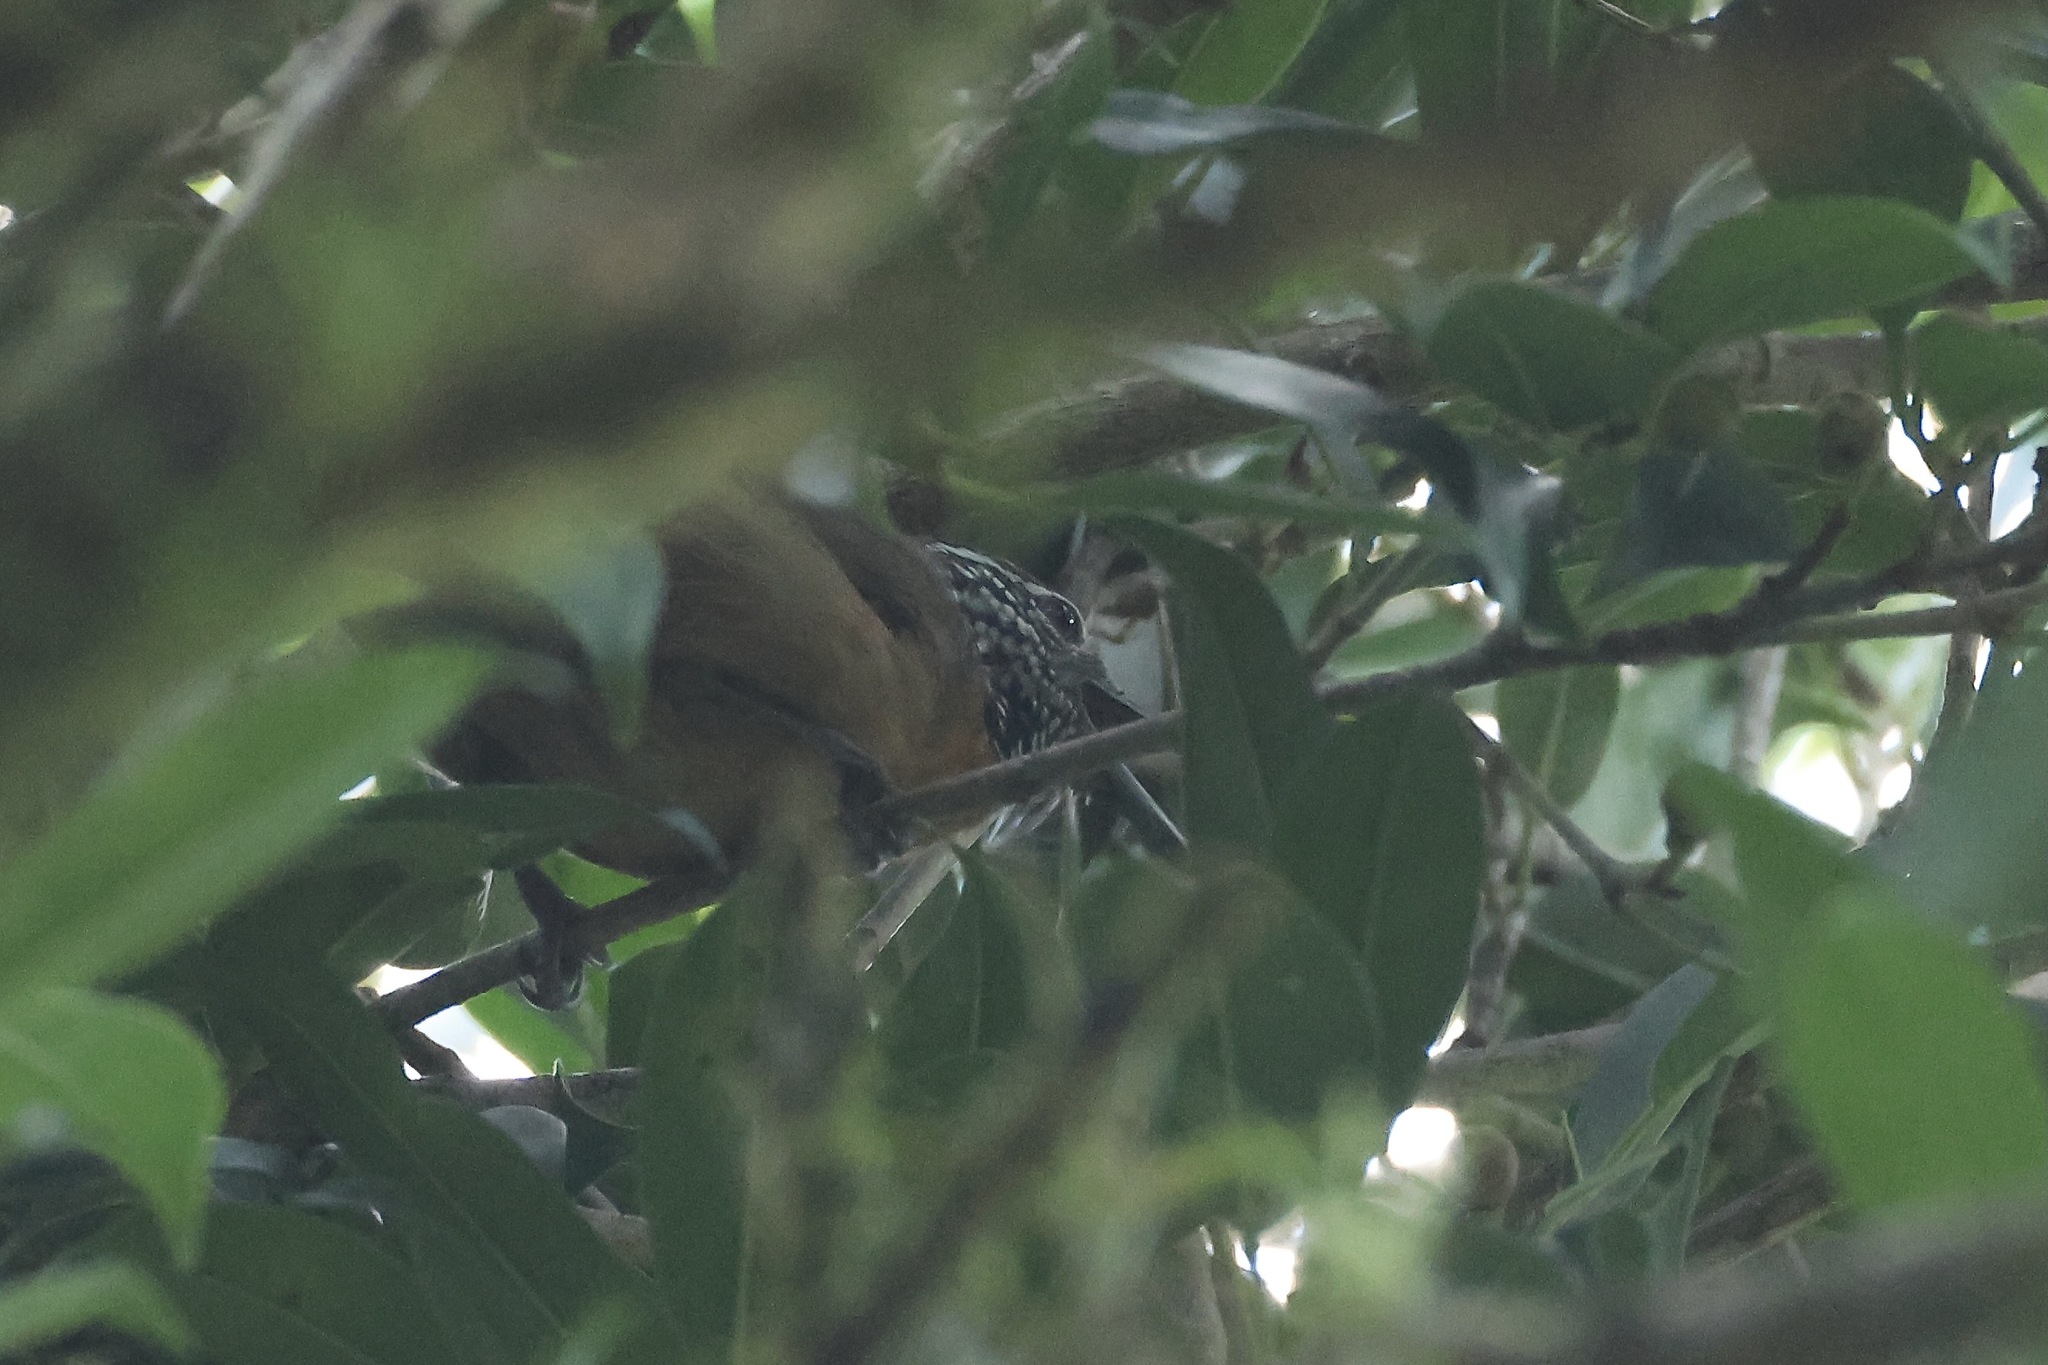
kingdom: Animalia
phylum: Chordata
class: Aves
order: Passeriformes
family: Troglodytidae
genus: Pheugopedius
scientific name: Pheugopedius rutilus
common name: Rufous-breasted wren
